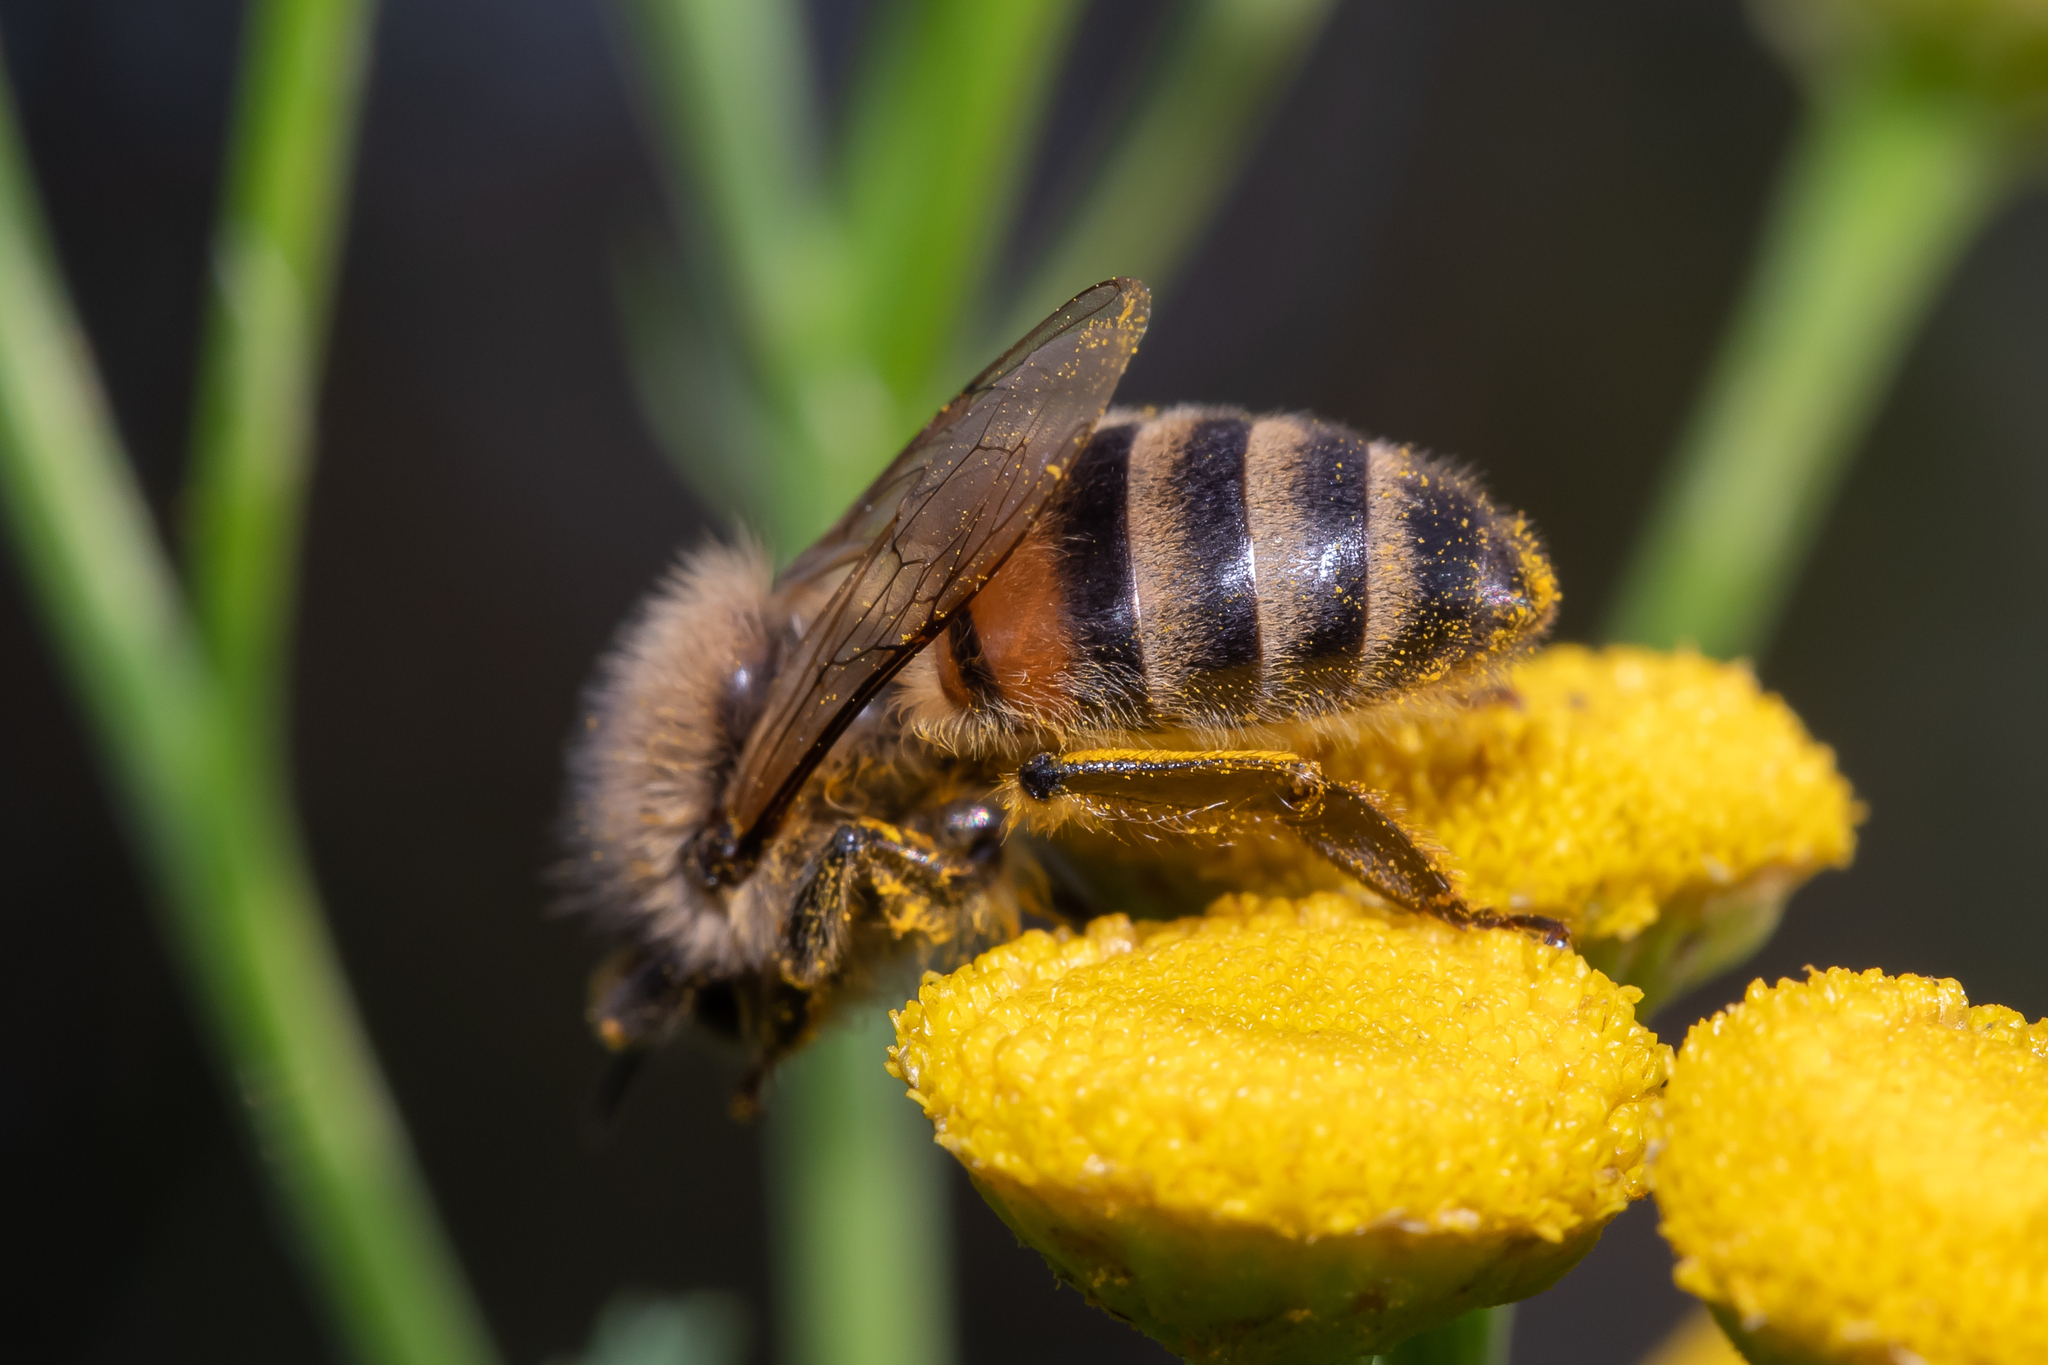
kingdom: Animalia
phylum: Arthropoda
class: Insecta
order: Hymenoptera
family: Apidae
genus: Apis
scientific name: Apis mellifera
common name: Honey bee
